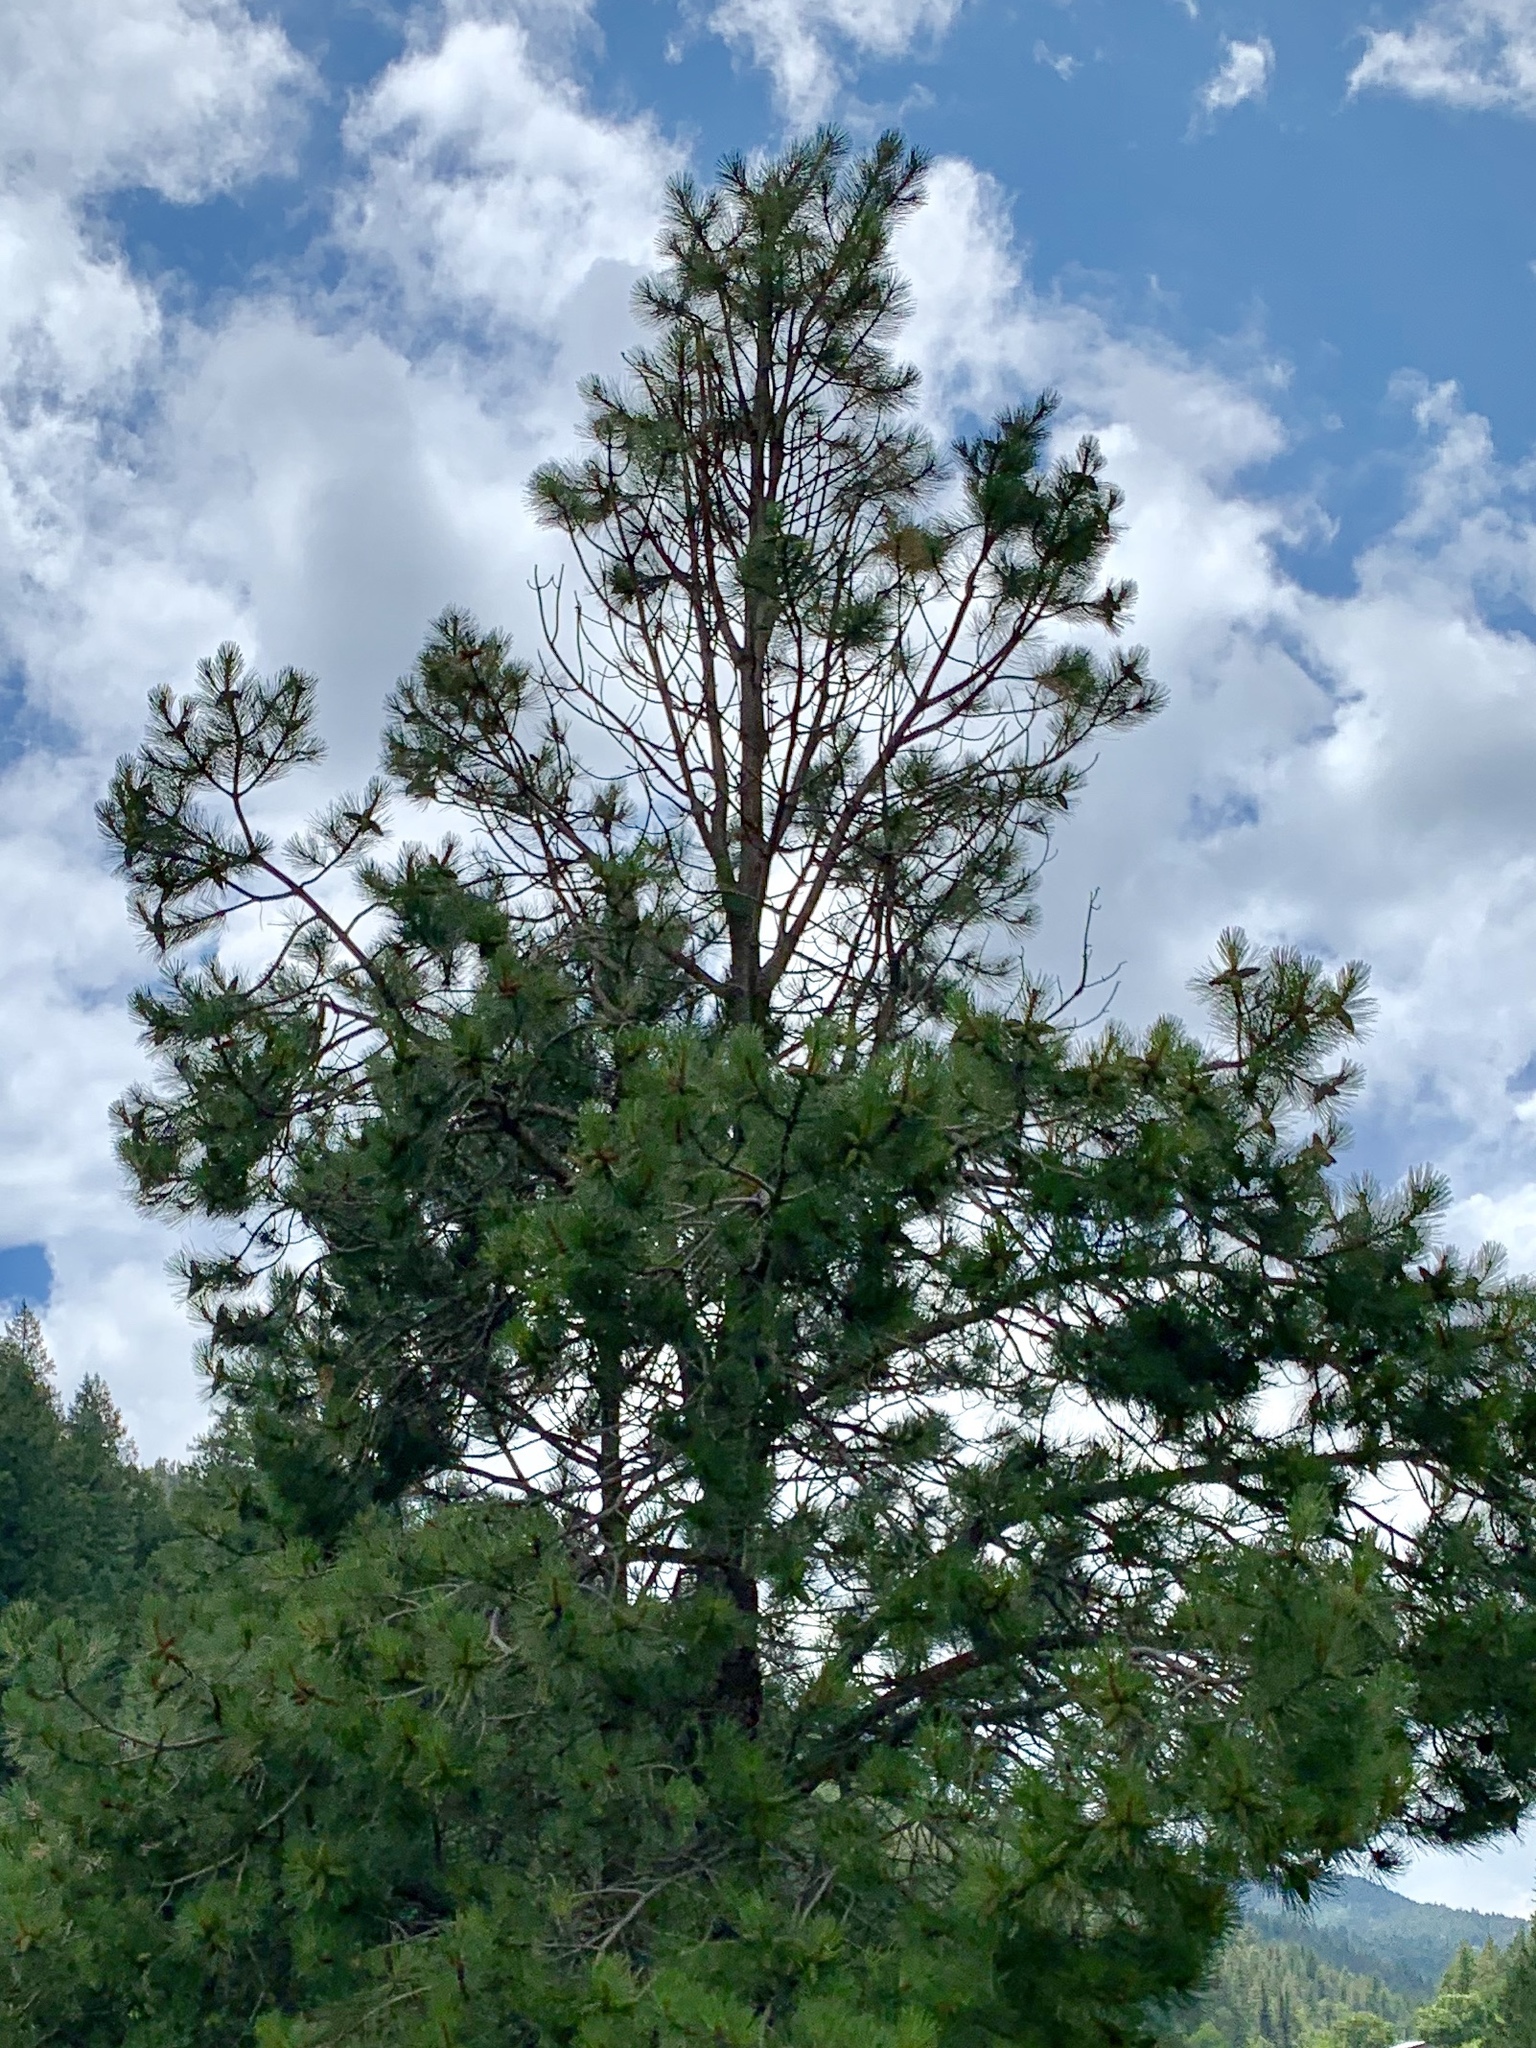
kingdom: Plantae
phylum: Tracheophyta
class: Pinopsida
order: Pinales
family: Pinaceae
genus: Pinus
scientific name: Pinus ponderosa
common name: Western yellow-pine
